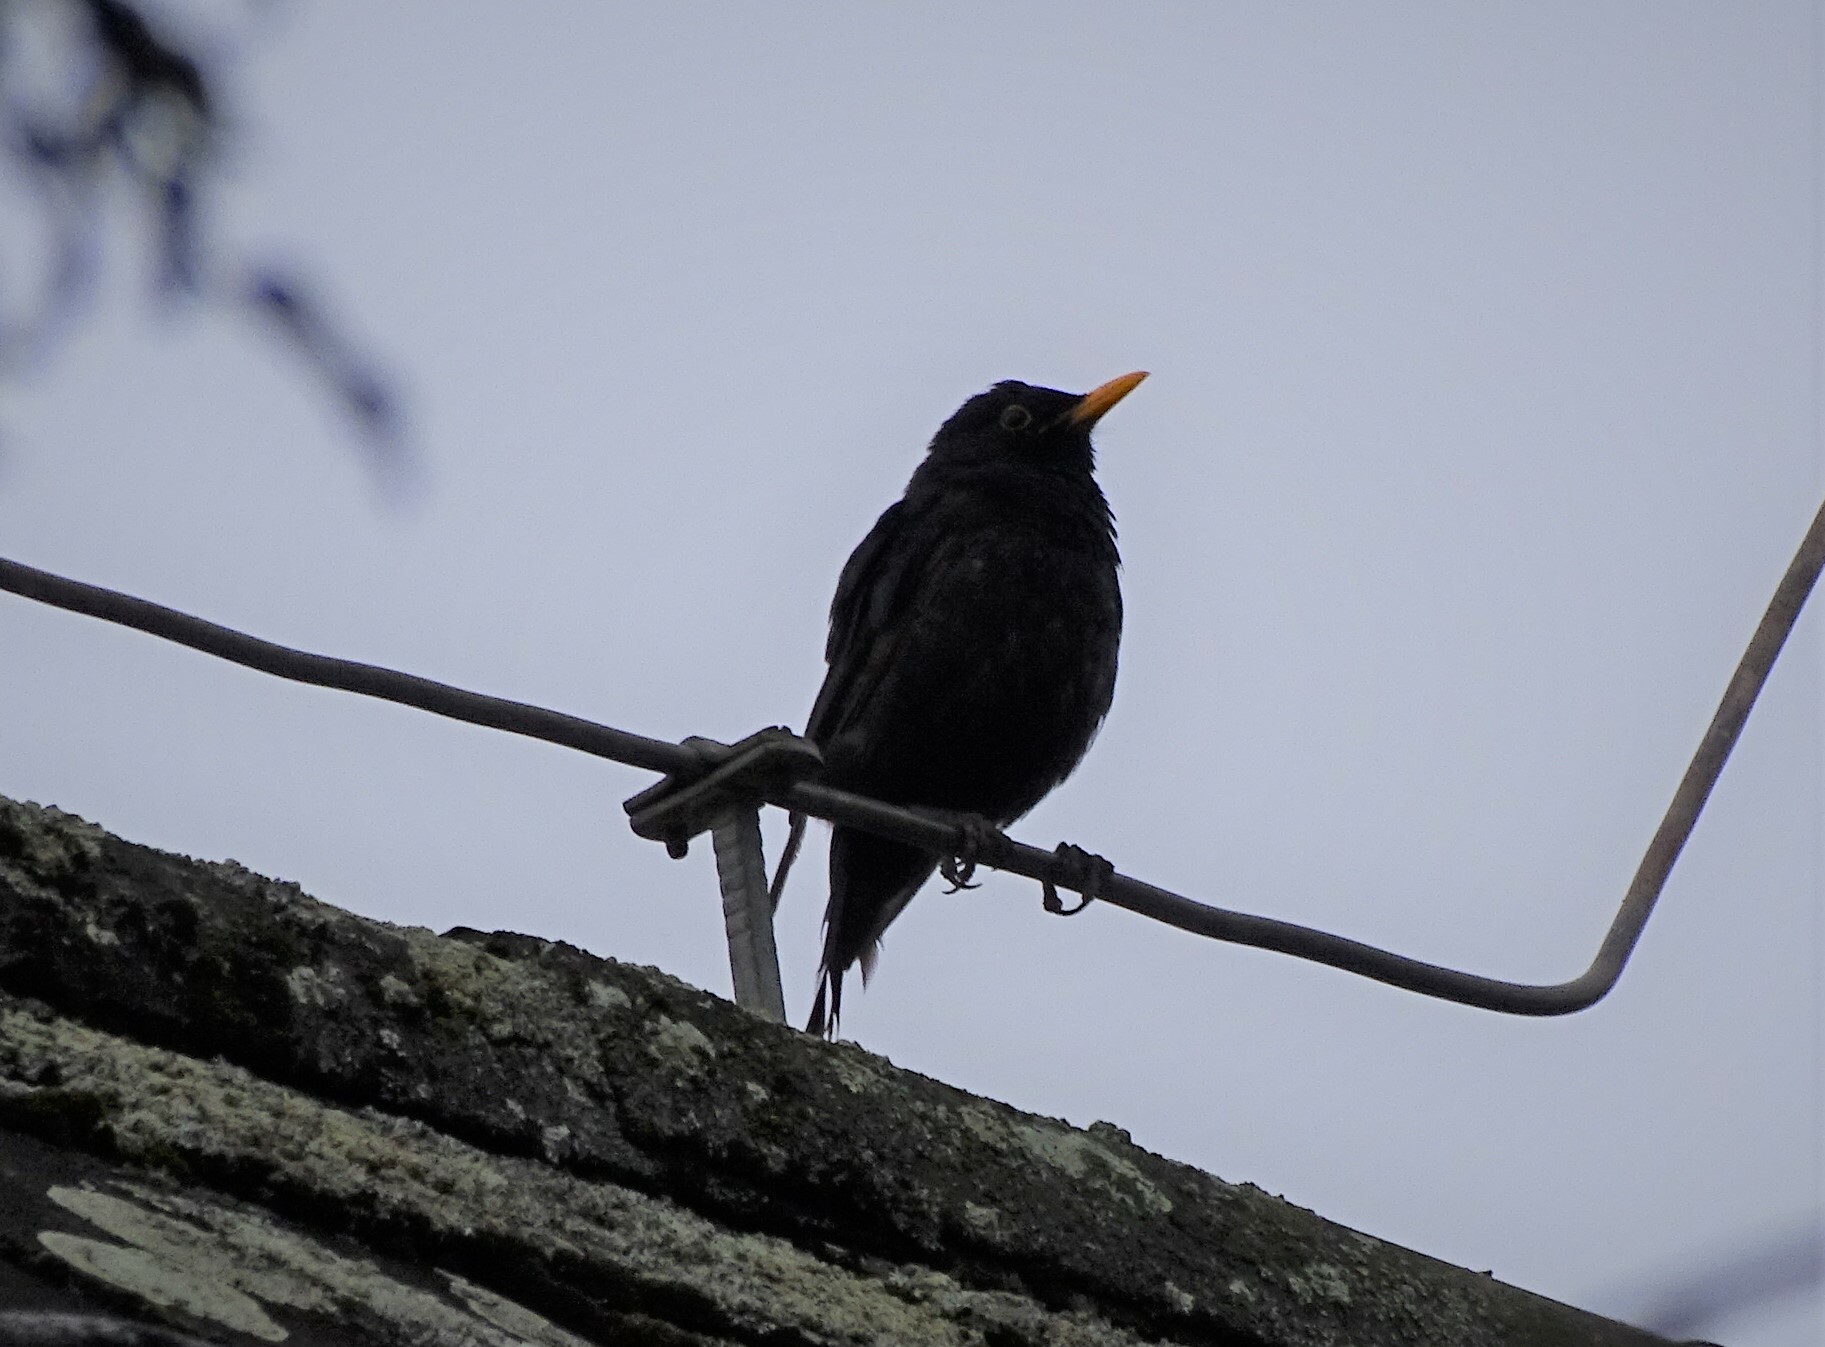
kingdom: Animalia
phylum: Chordata
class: Aves
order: Passeriformes
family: Turdidae
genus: Turdus
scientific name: Turdus merula
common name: Common blackbird
